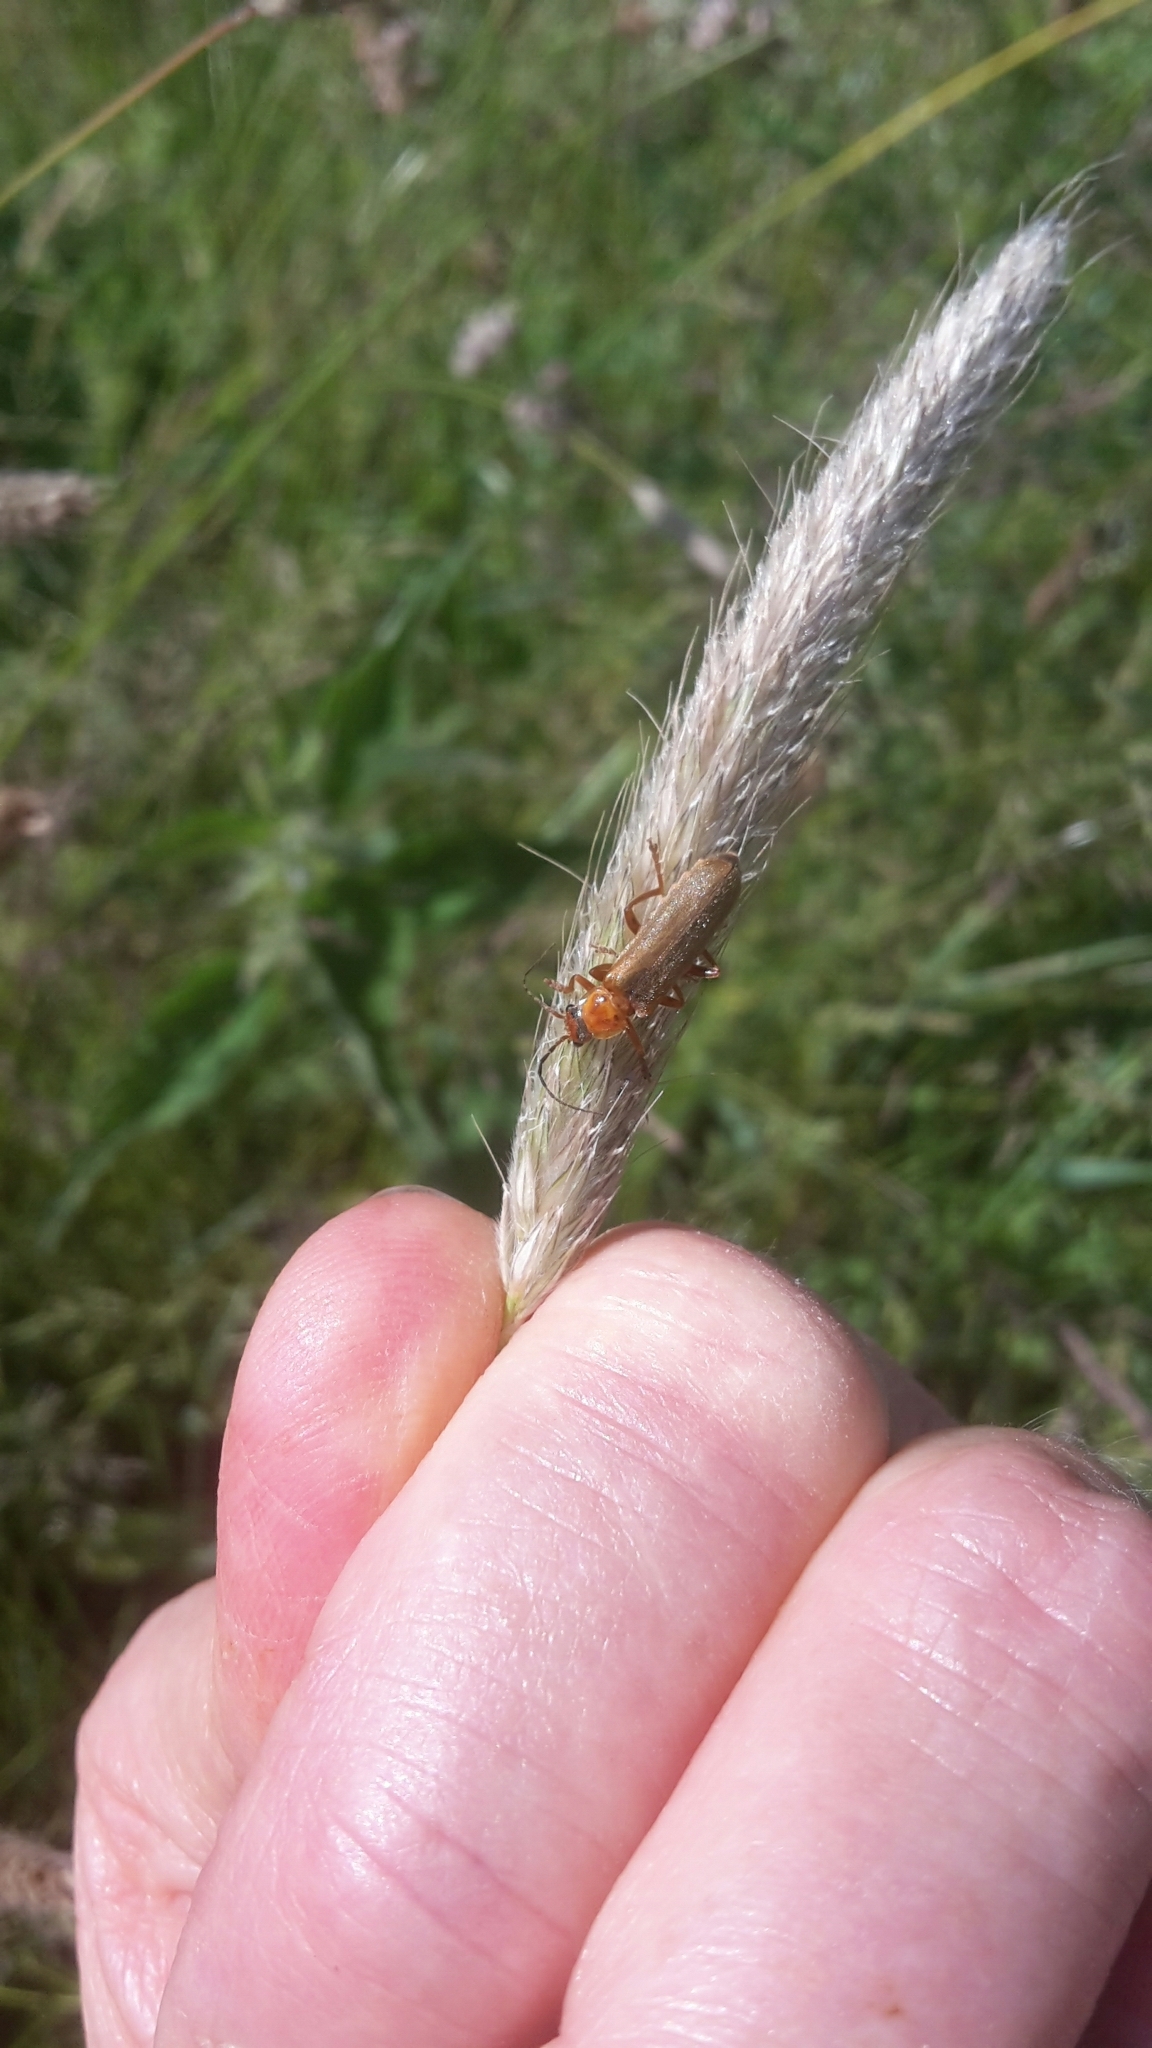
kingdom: Animalia
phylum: Arthropoda
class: Insecta
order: Coleoptera
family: Cantharidae
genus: Cantharis
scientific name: Cantharis rufa
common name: Red-spotted soldier beetle
